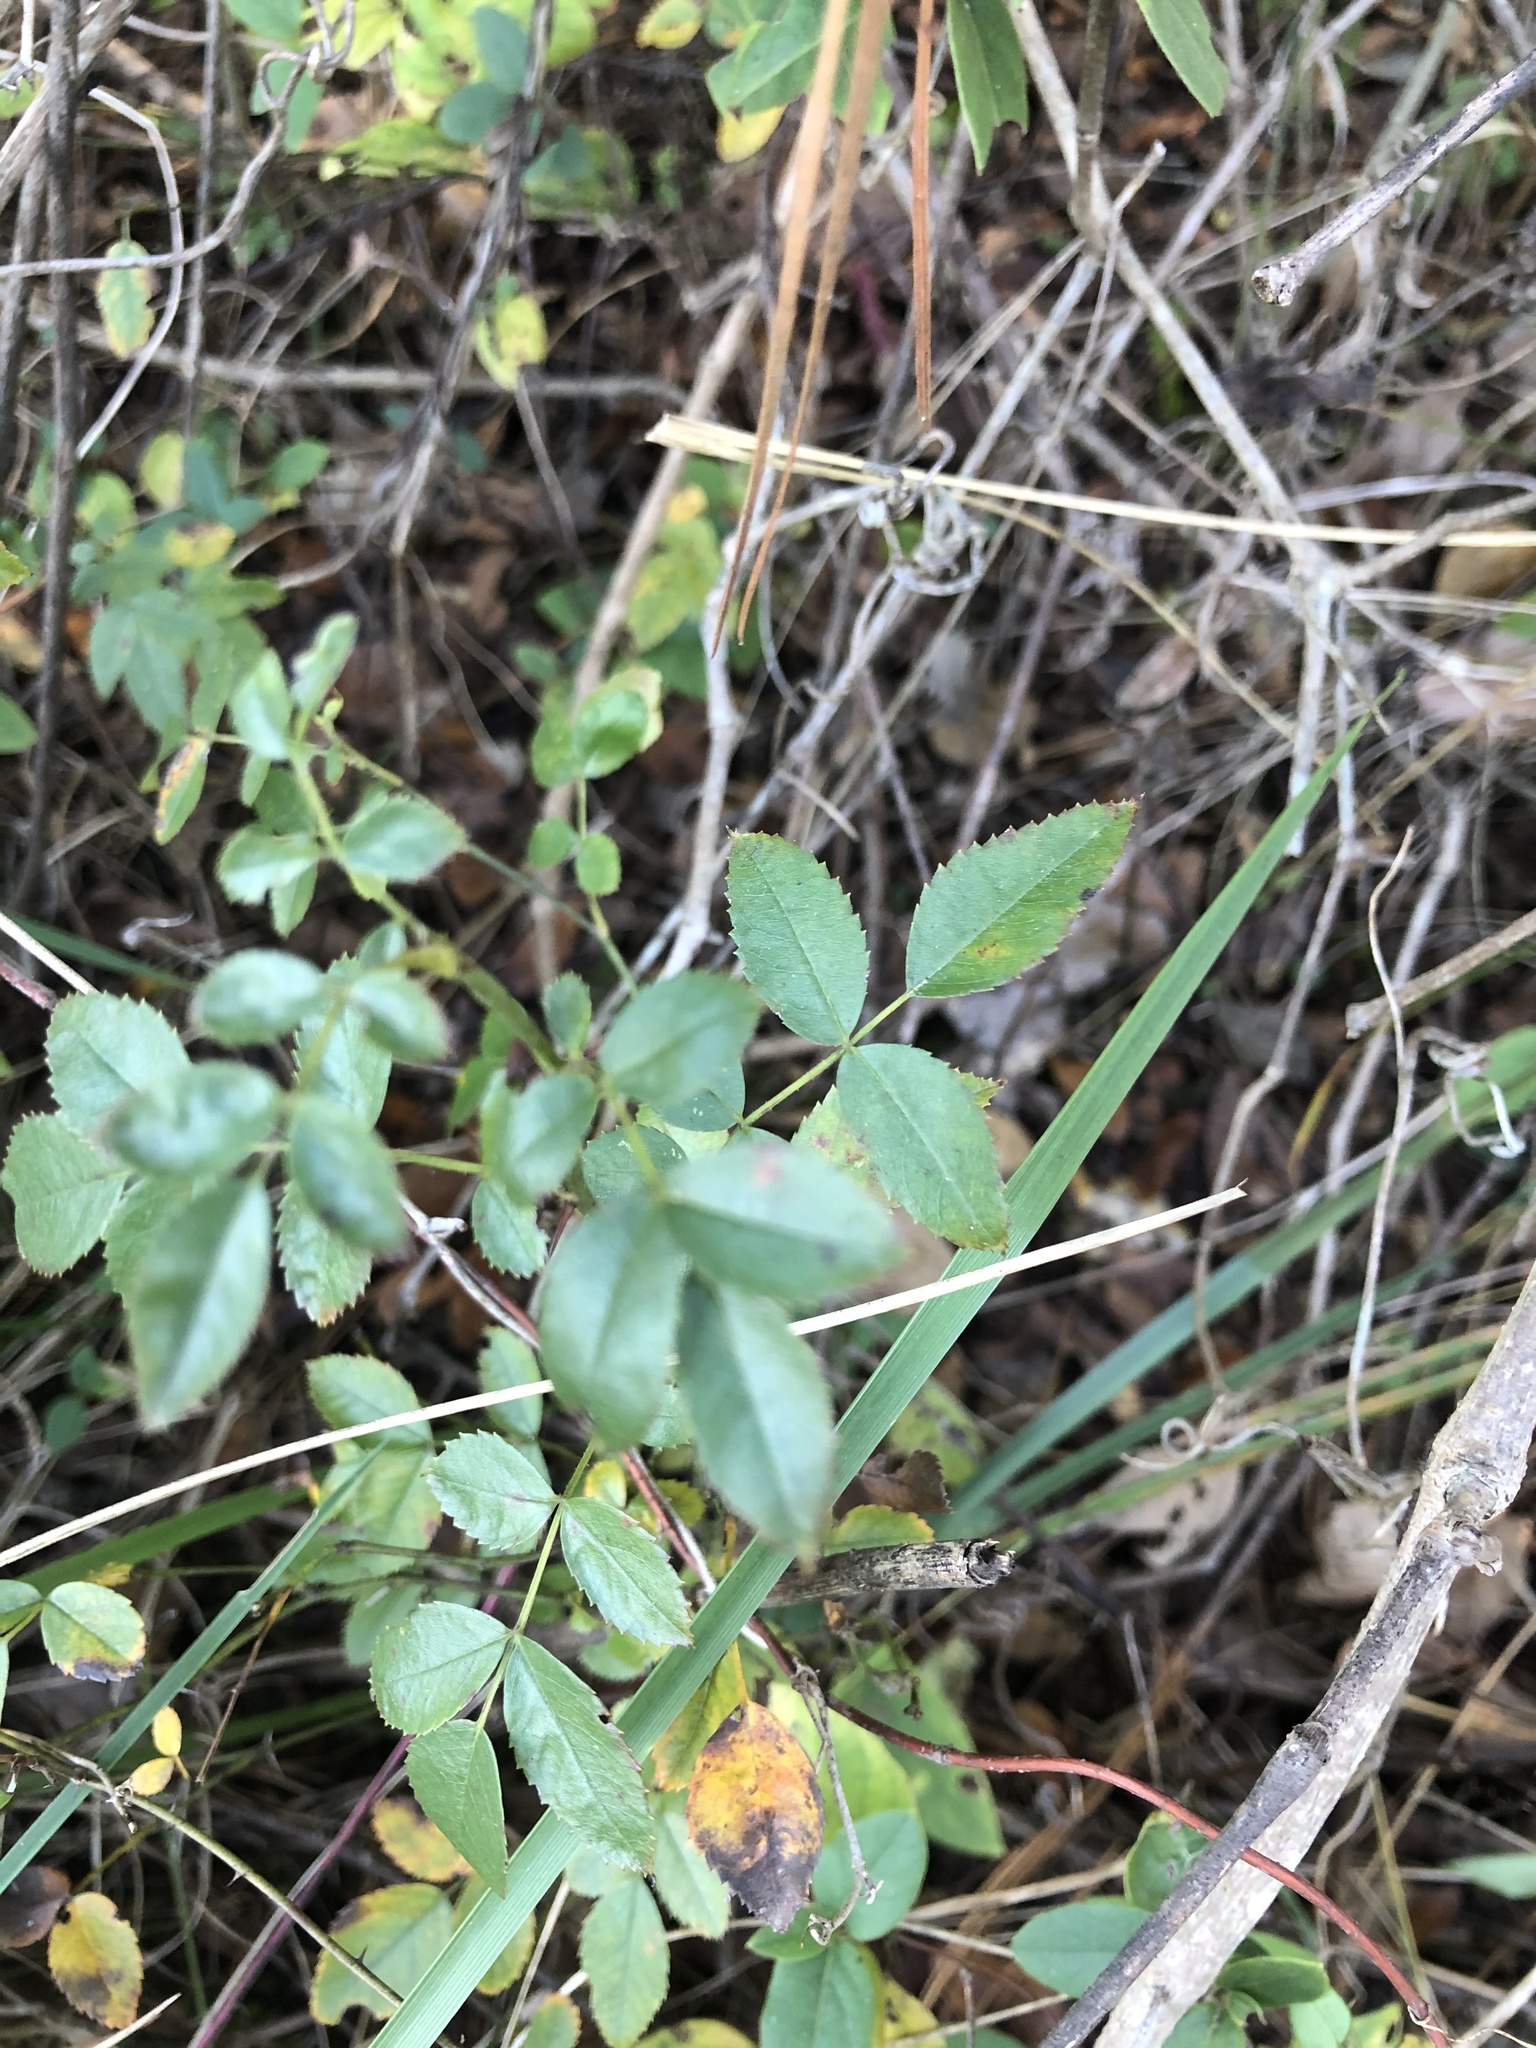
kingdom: Plantae
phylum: Tracheophyta
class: Magnoliopsida
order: Rosales
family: Rosaceae
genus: Rosa
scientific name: Rosa multiflora
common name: Multiflora rose
